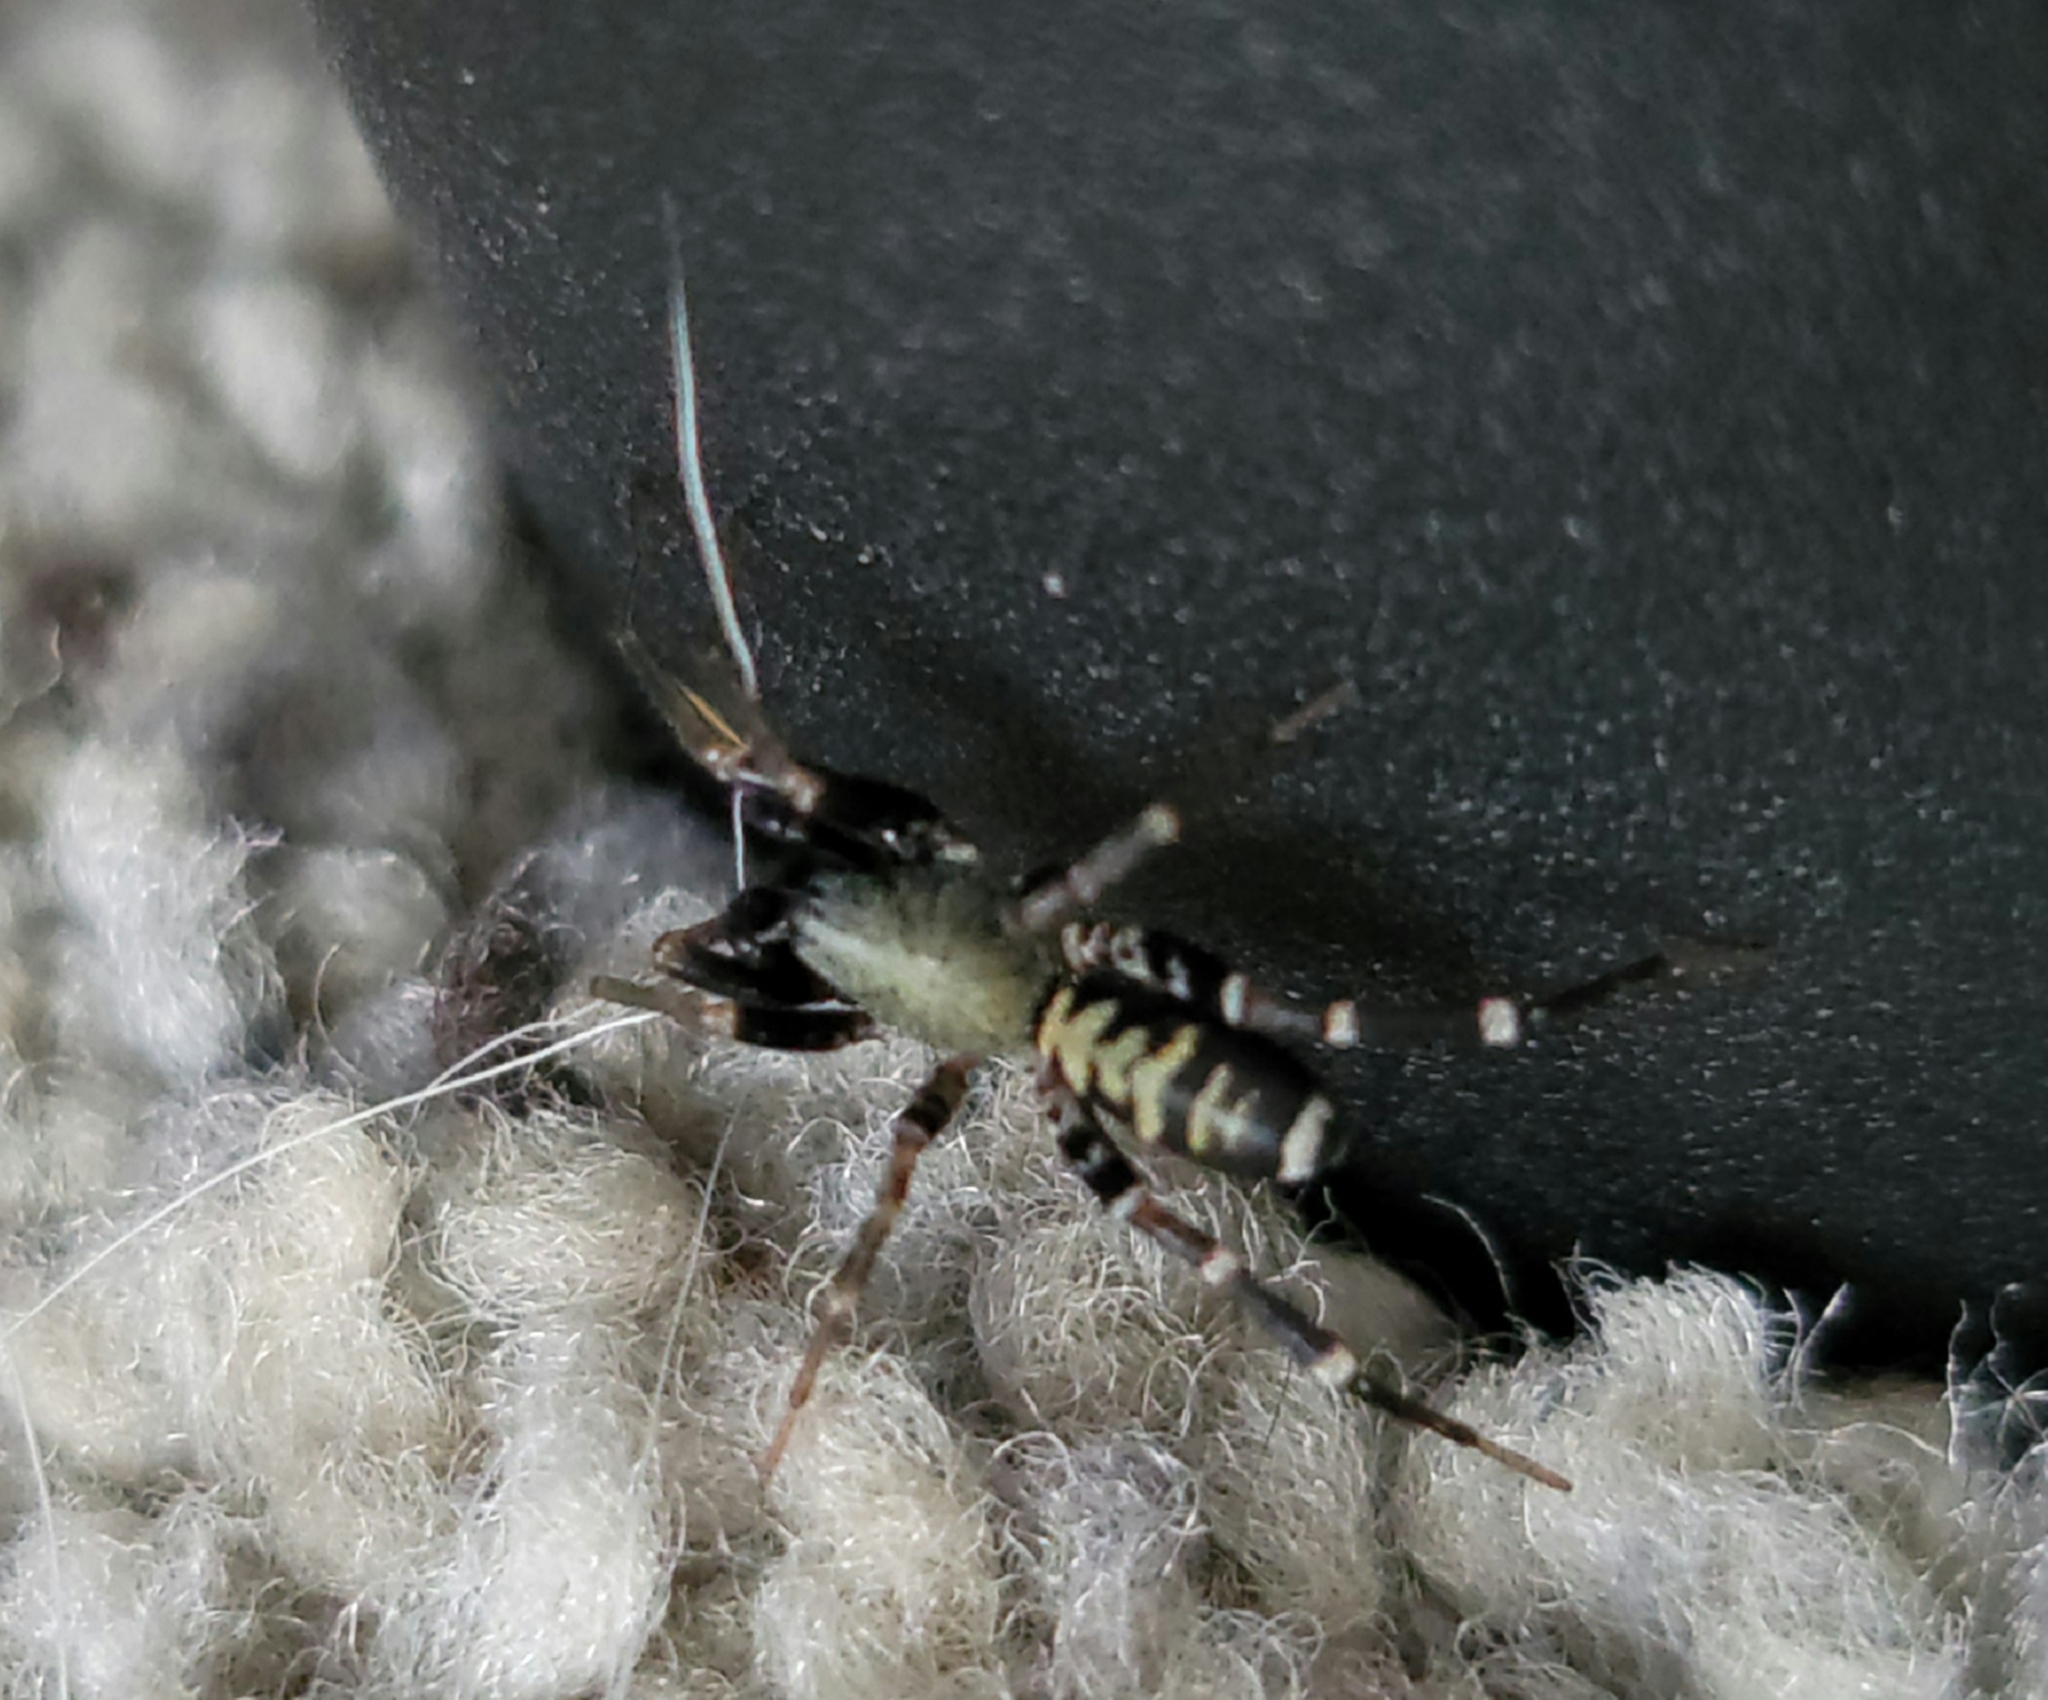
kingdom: Animalia
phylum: Arthropoda
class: Arachnida
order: Araneae
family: Corinnidae
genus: Castianeira
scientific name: Castianeira longipalpa
